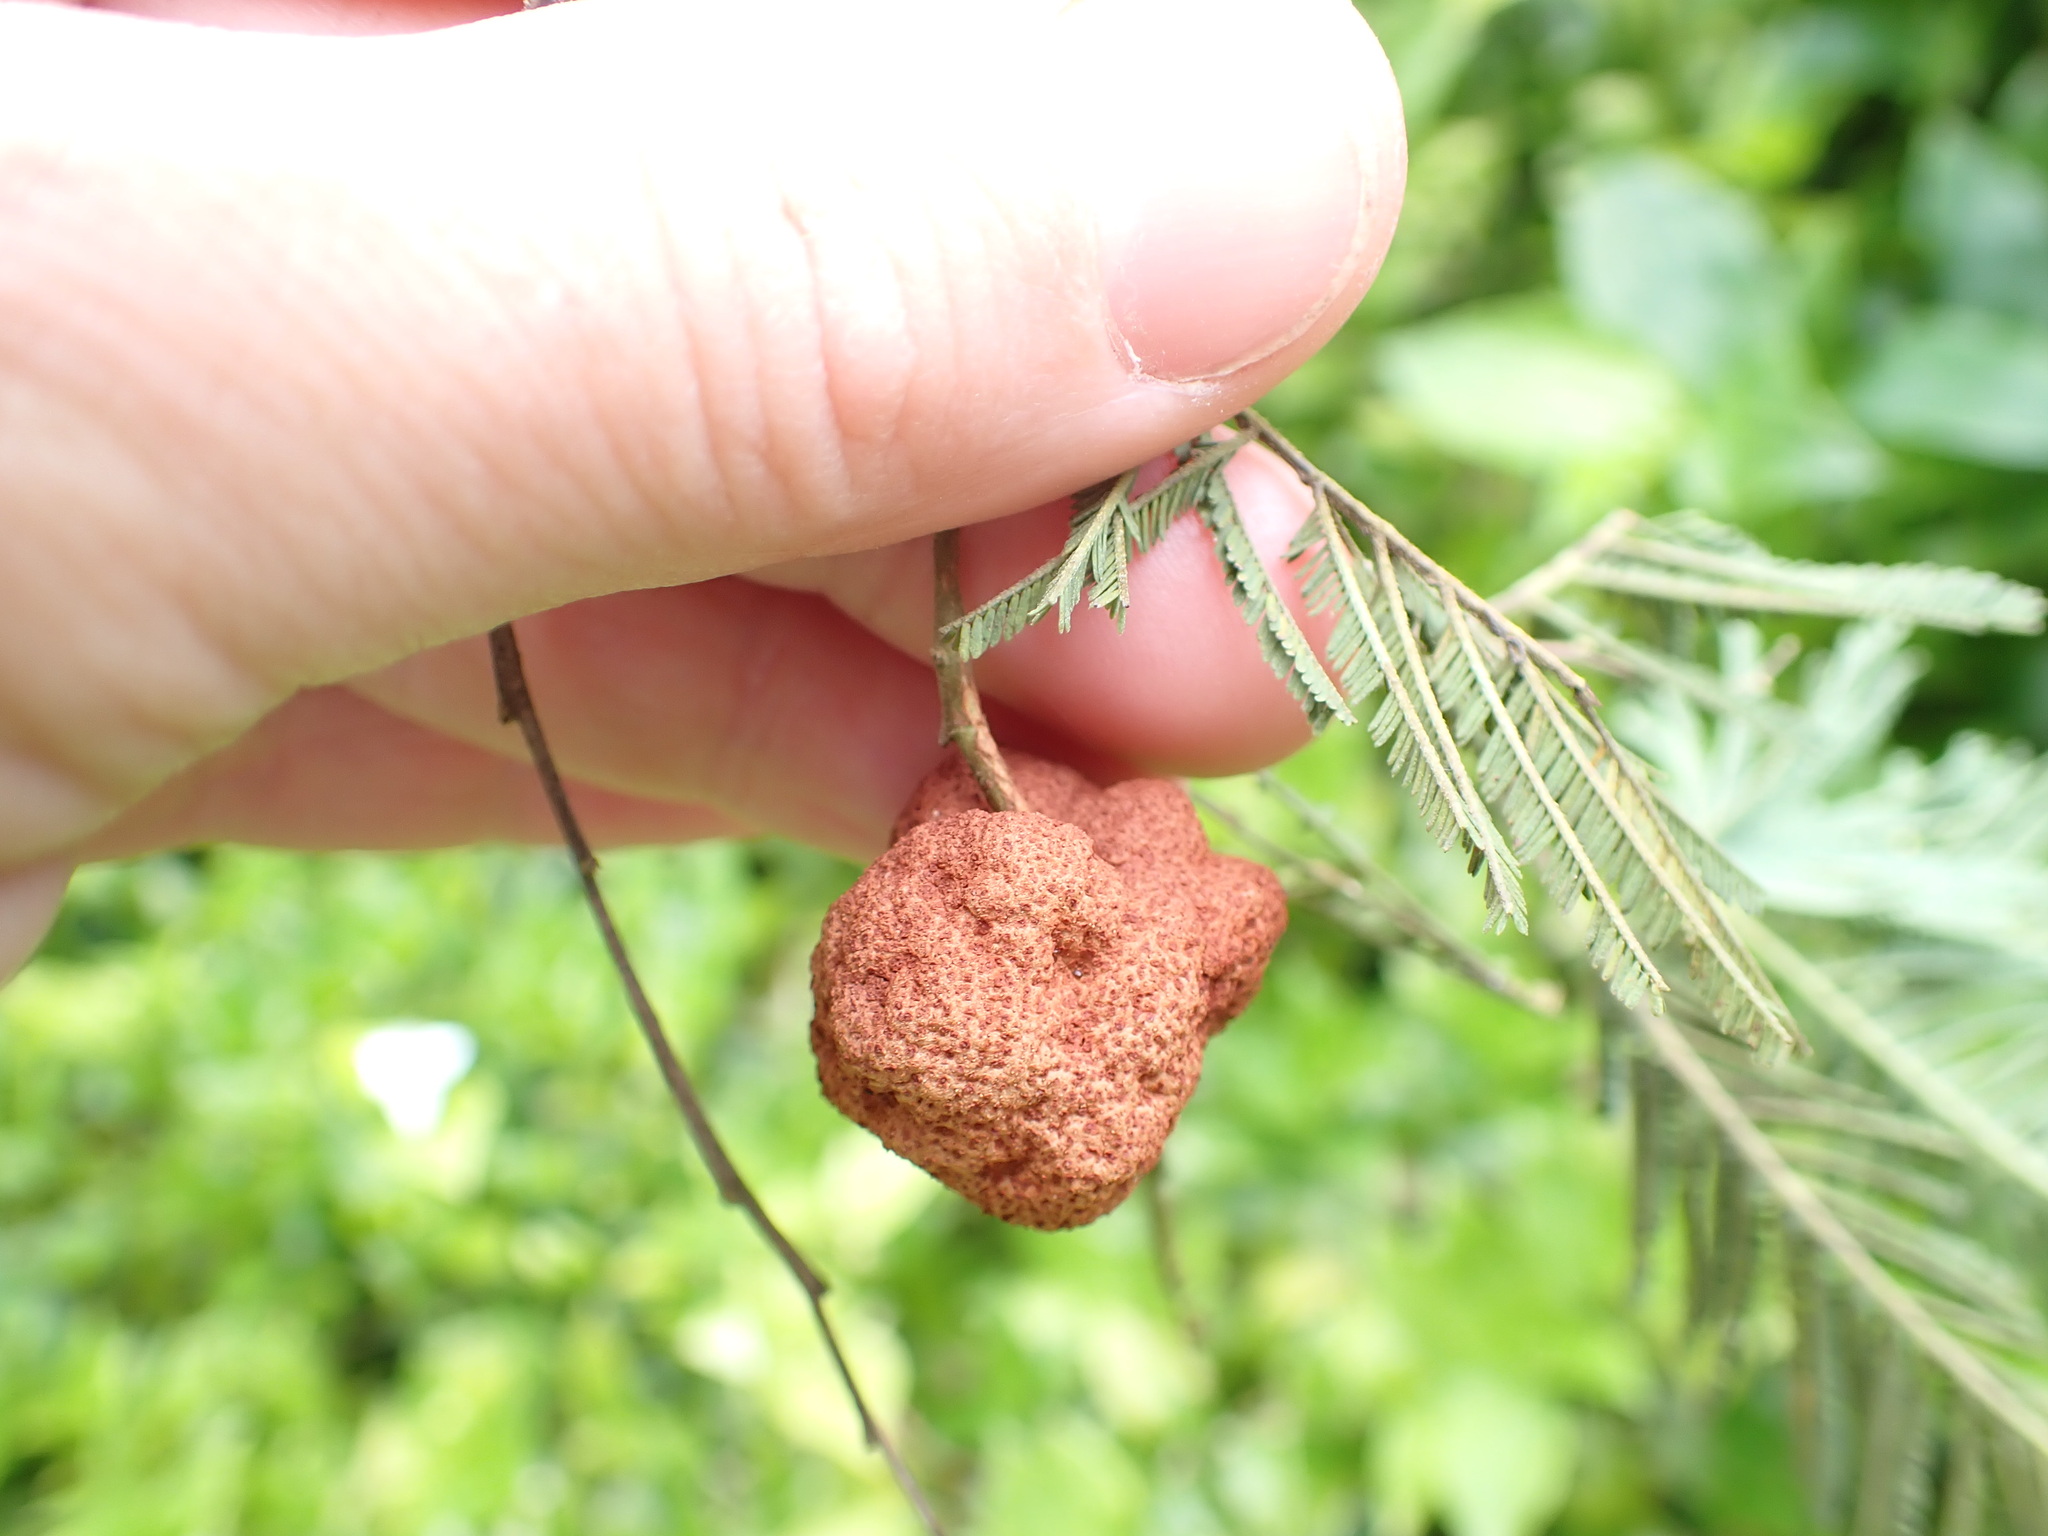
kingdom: Fungi
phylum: Basidiomycota
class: Pucciniomycetes
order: Pucciniales
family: Uromycladiaceae
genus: Uromycladium
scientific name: Uromycladium murphyi
